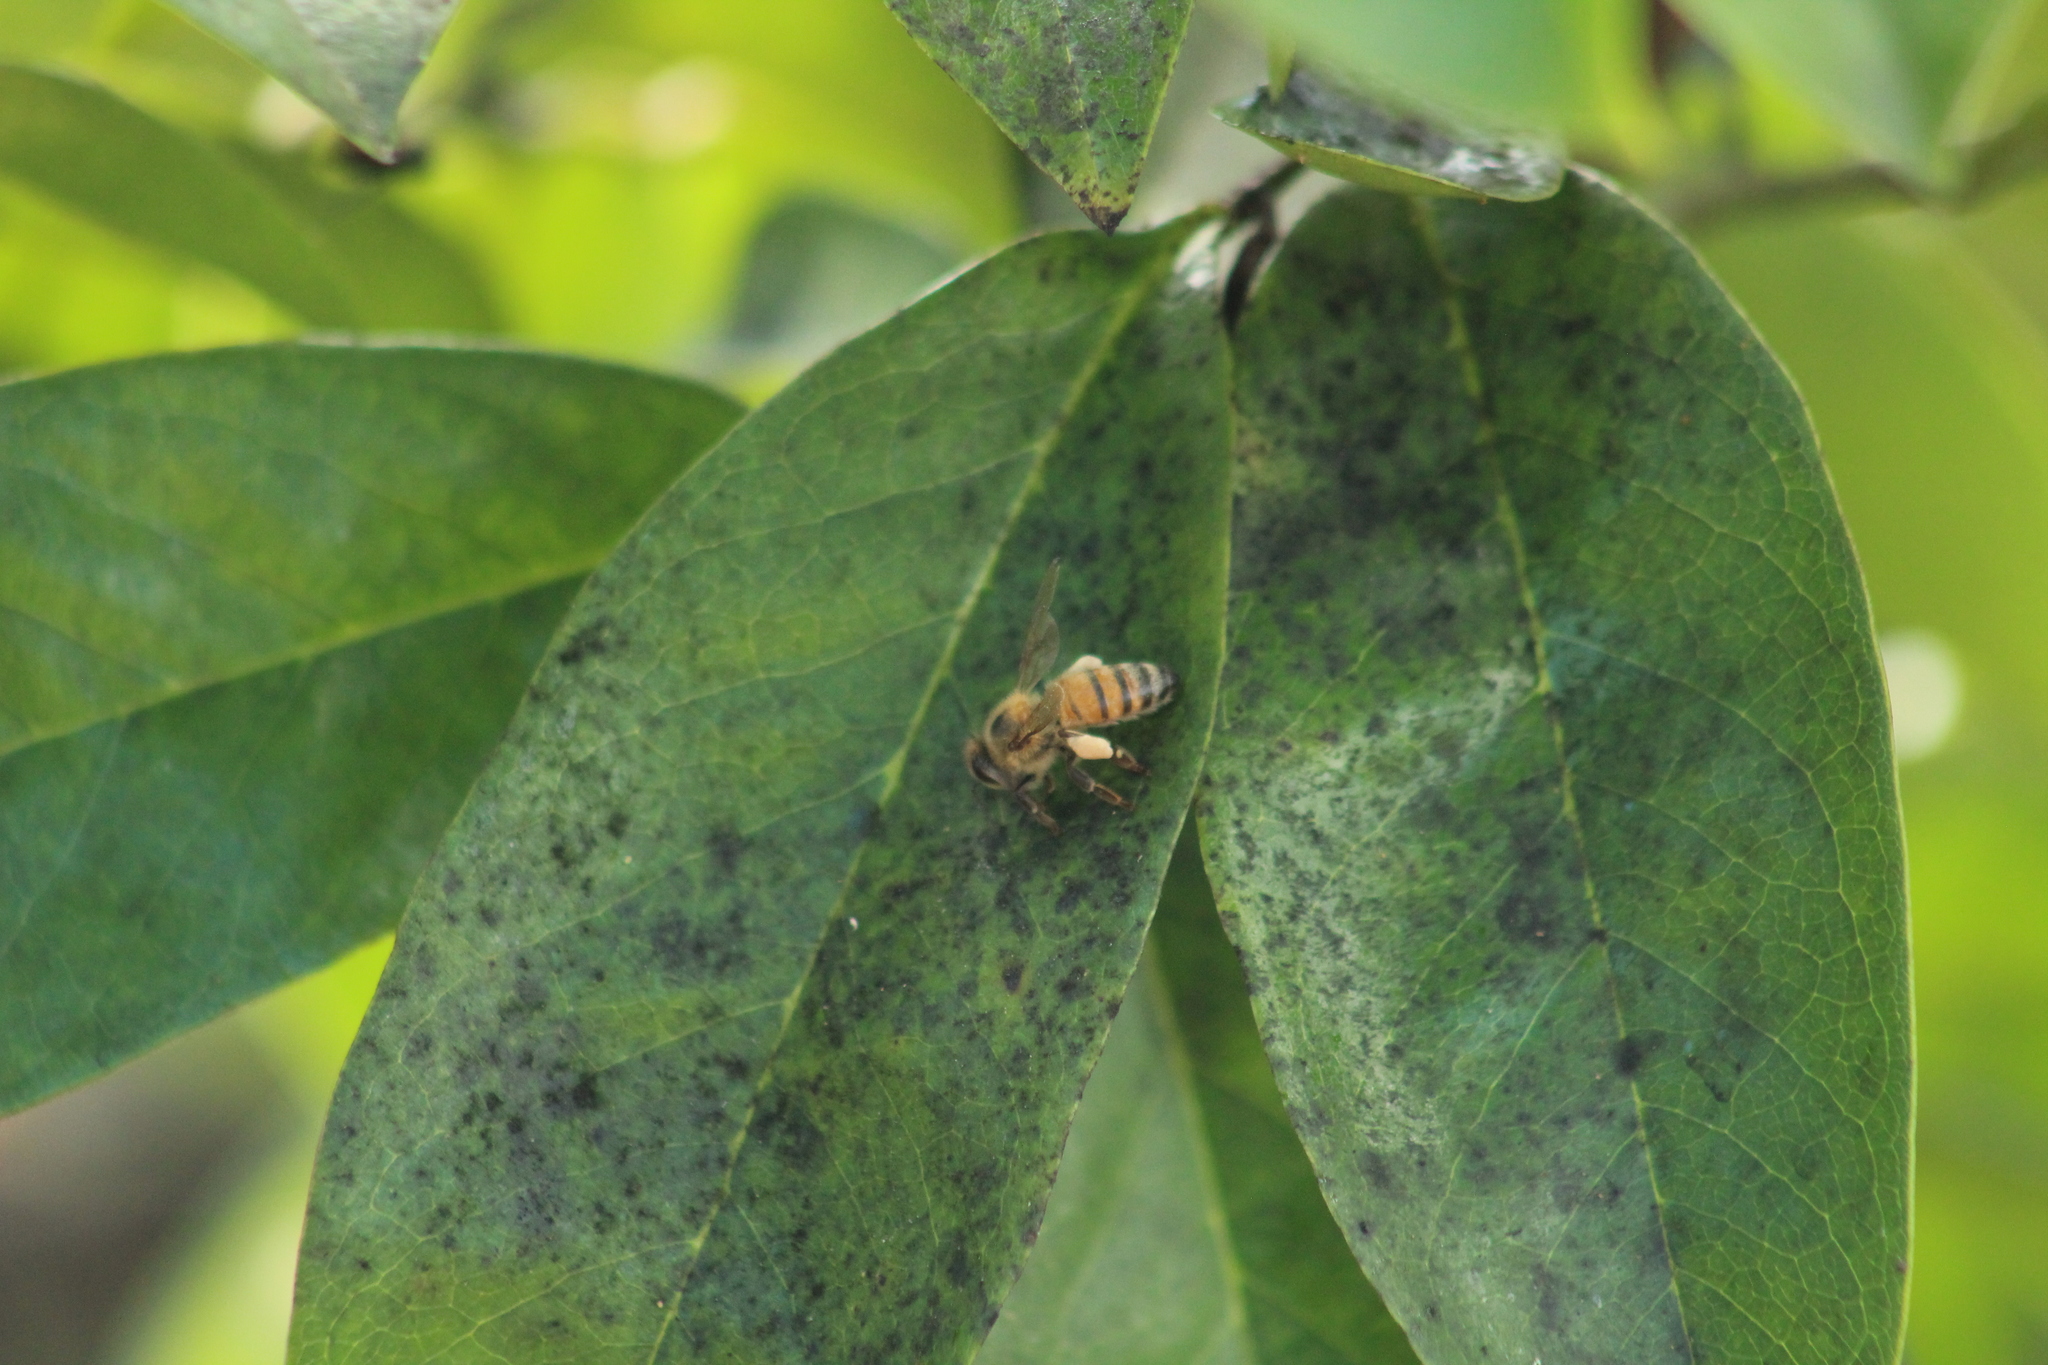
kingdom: Animalia
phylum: Arthropoda
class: Insecta
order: Hymenoptera
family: Apidae
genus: Apis
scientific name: Apis mellifera
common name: Honey bee
